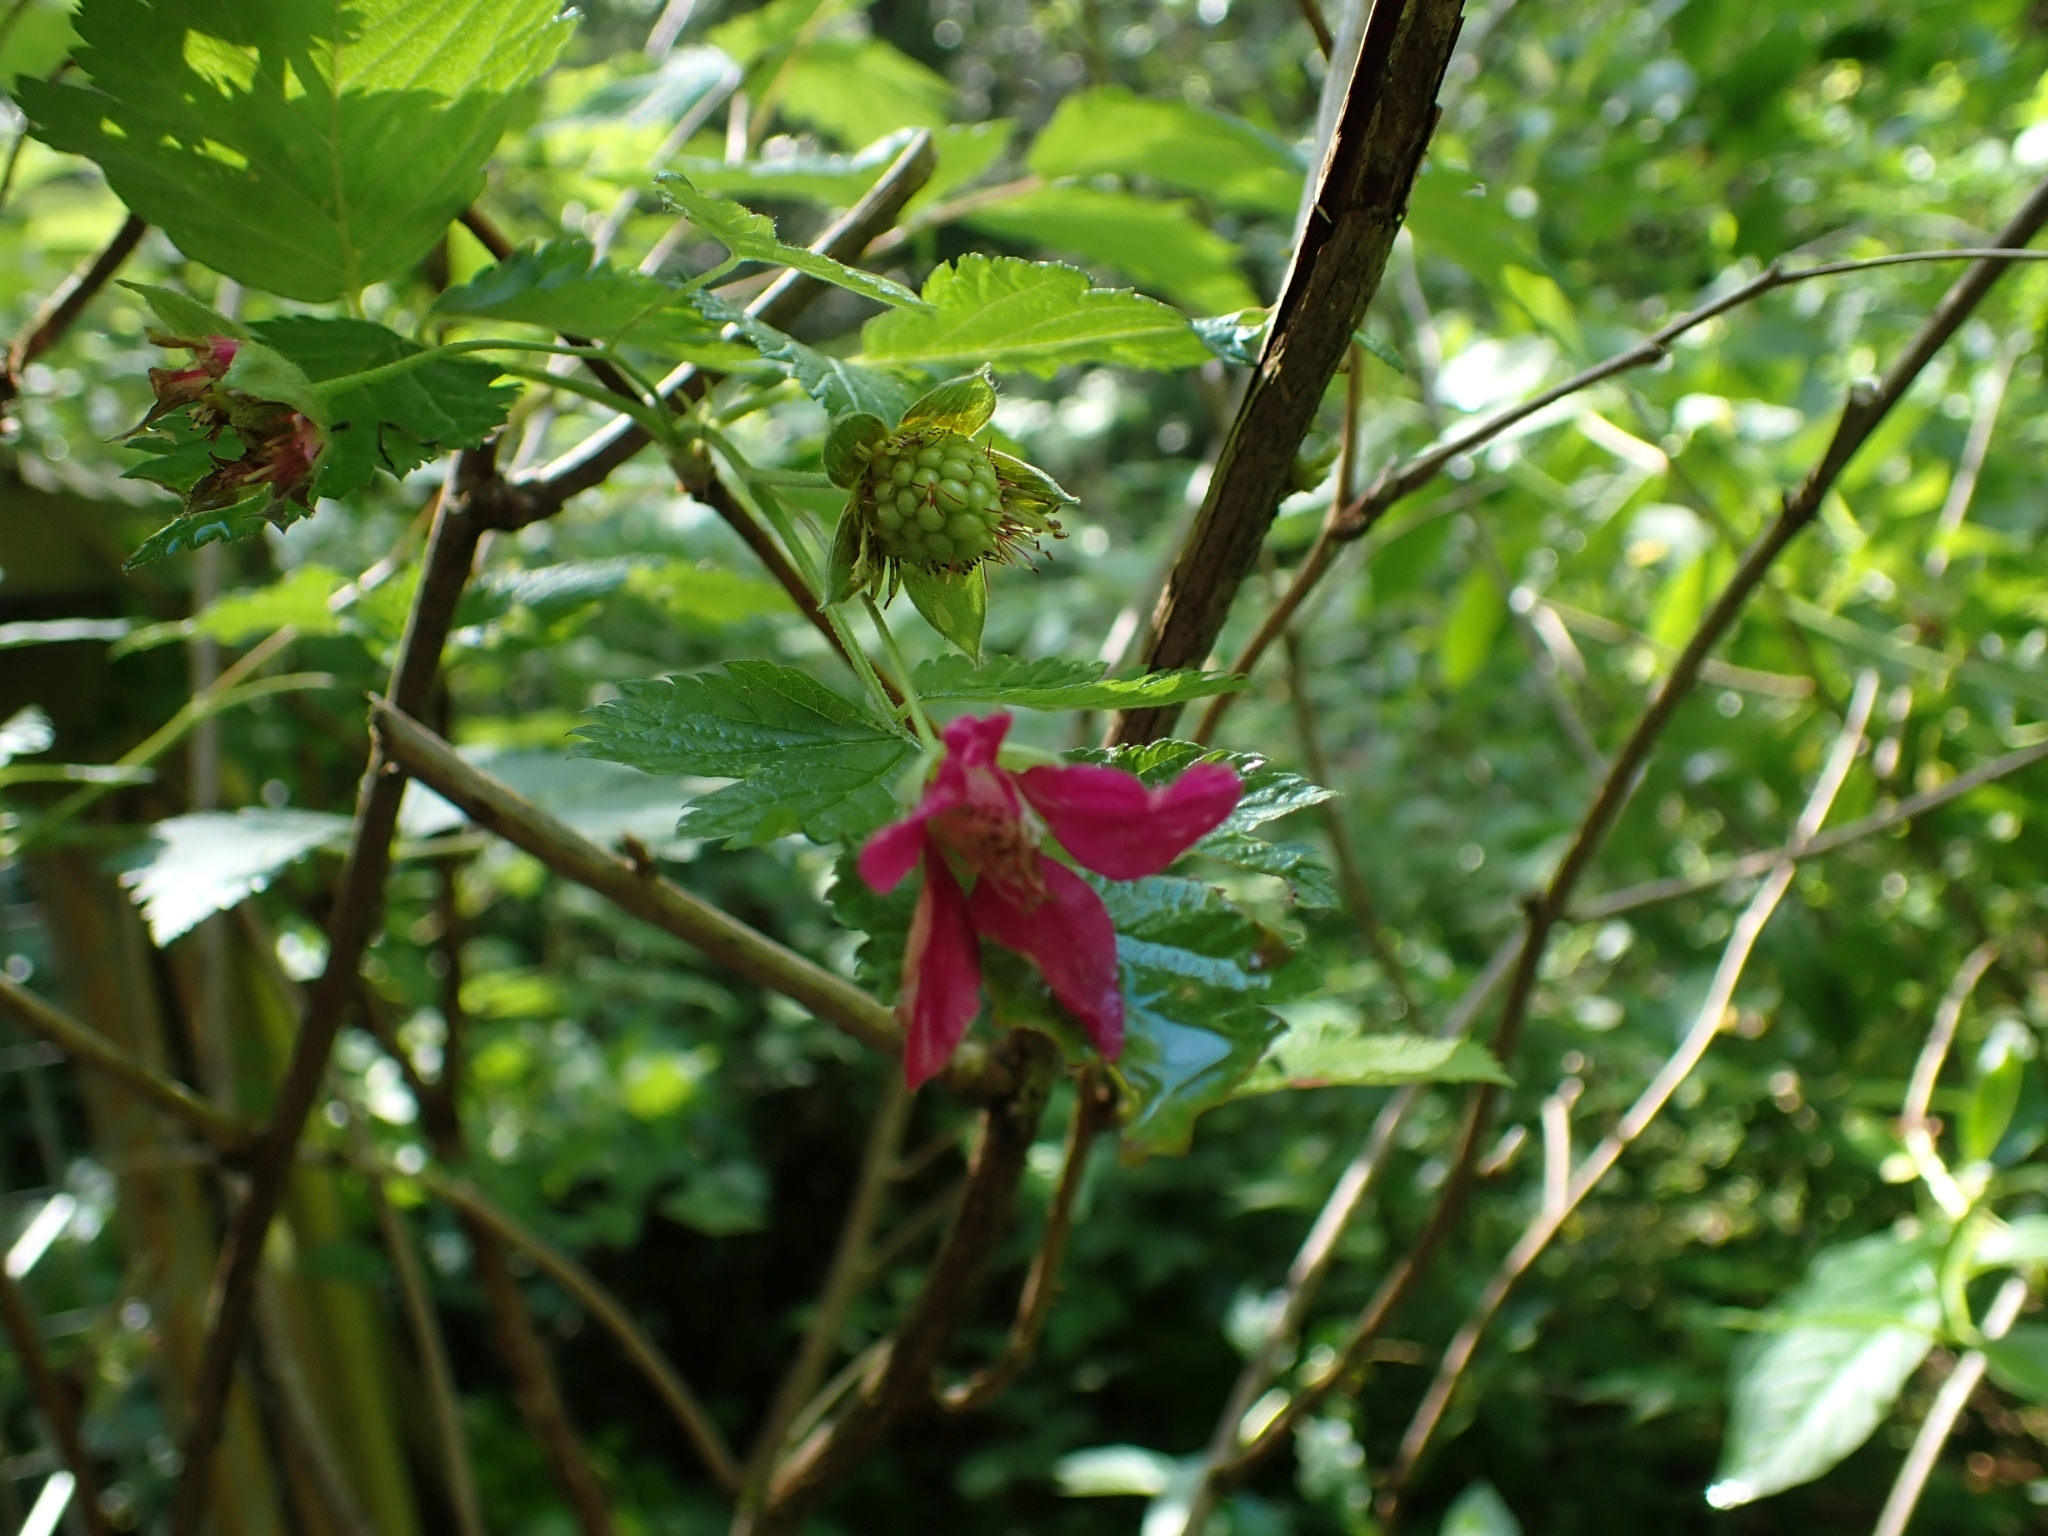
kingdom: Plantae
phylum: Tracheophyta
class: Magnoliopsida
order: Rosales
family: Rosaceae
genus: Rubus
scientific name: Rubus spectabilis
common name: Salmonberry
